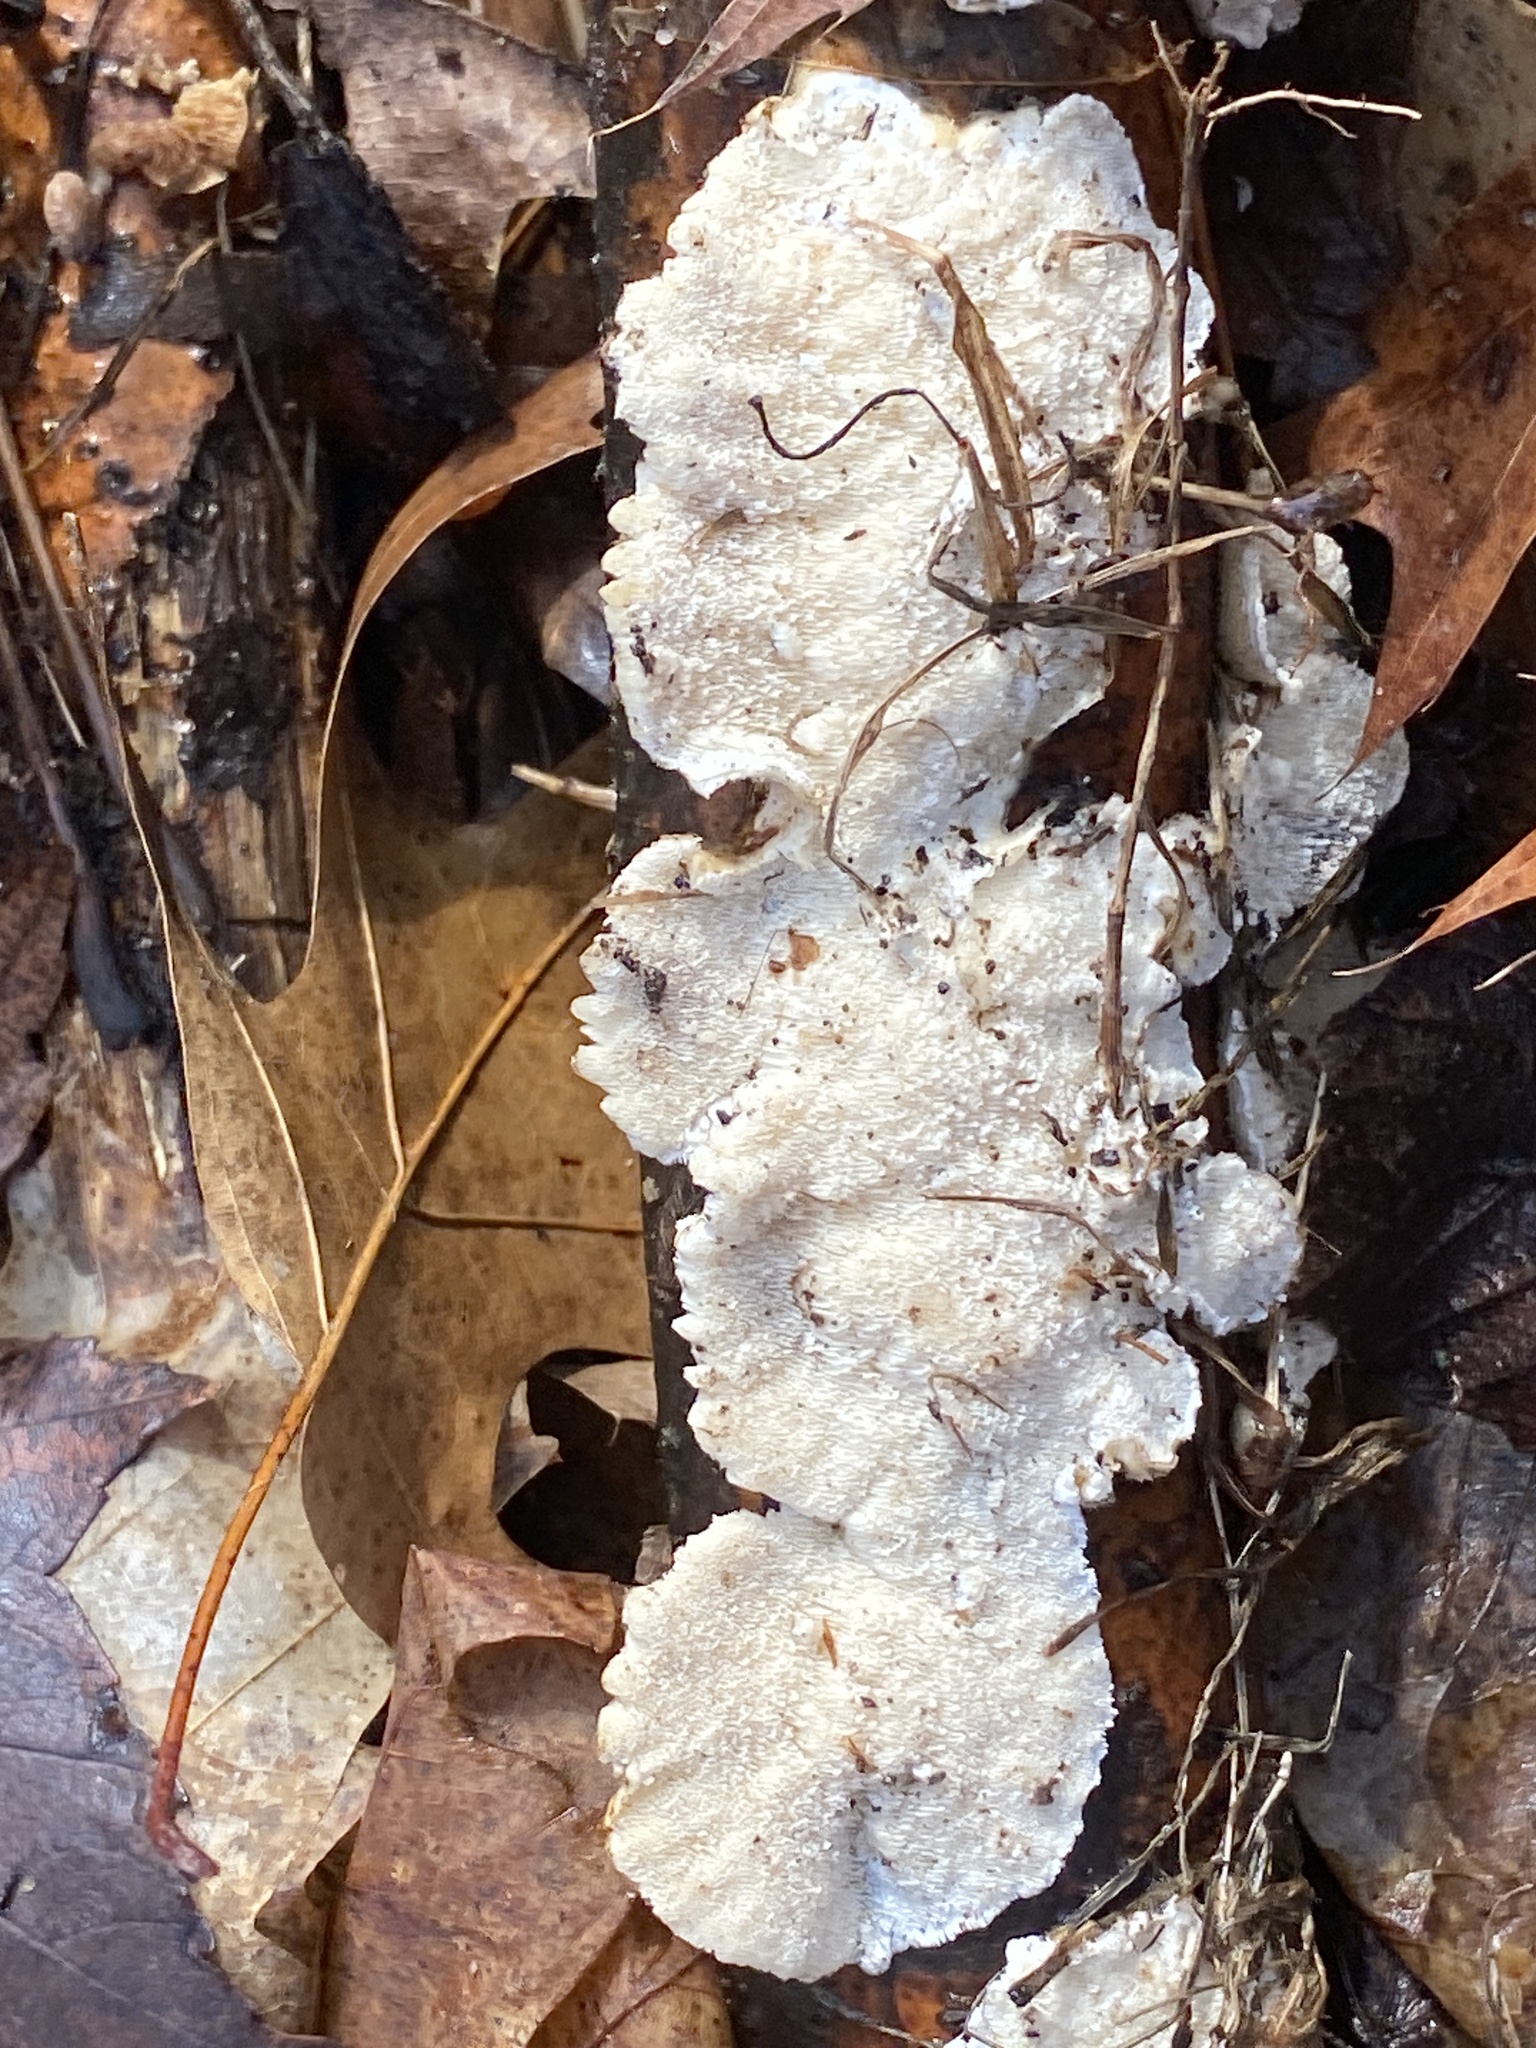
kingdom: Fungi
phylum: Basidiomycota
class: Agaricomycetes
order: Polyporales
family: Irpicaceae
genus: Trametopsis
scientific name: Trametopsis cervina
